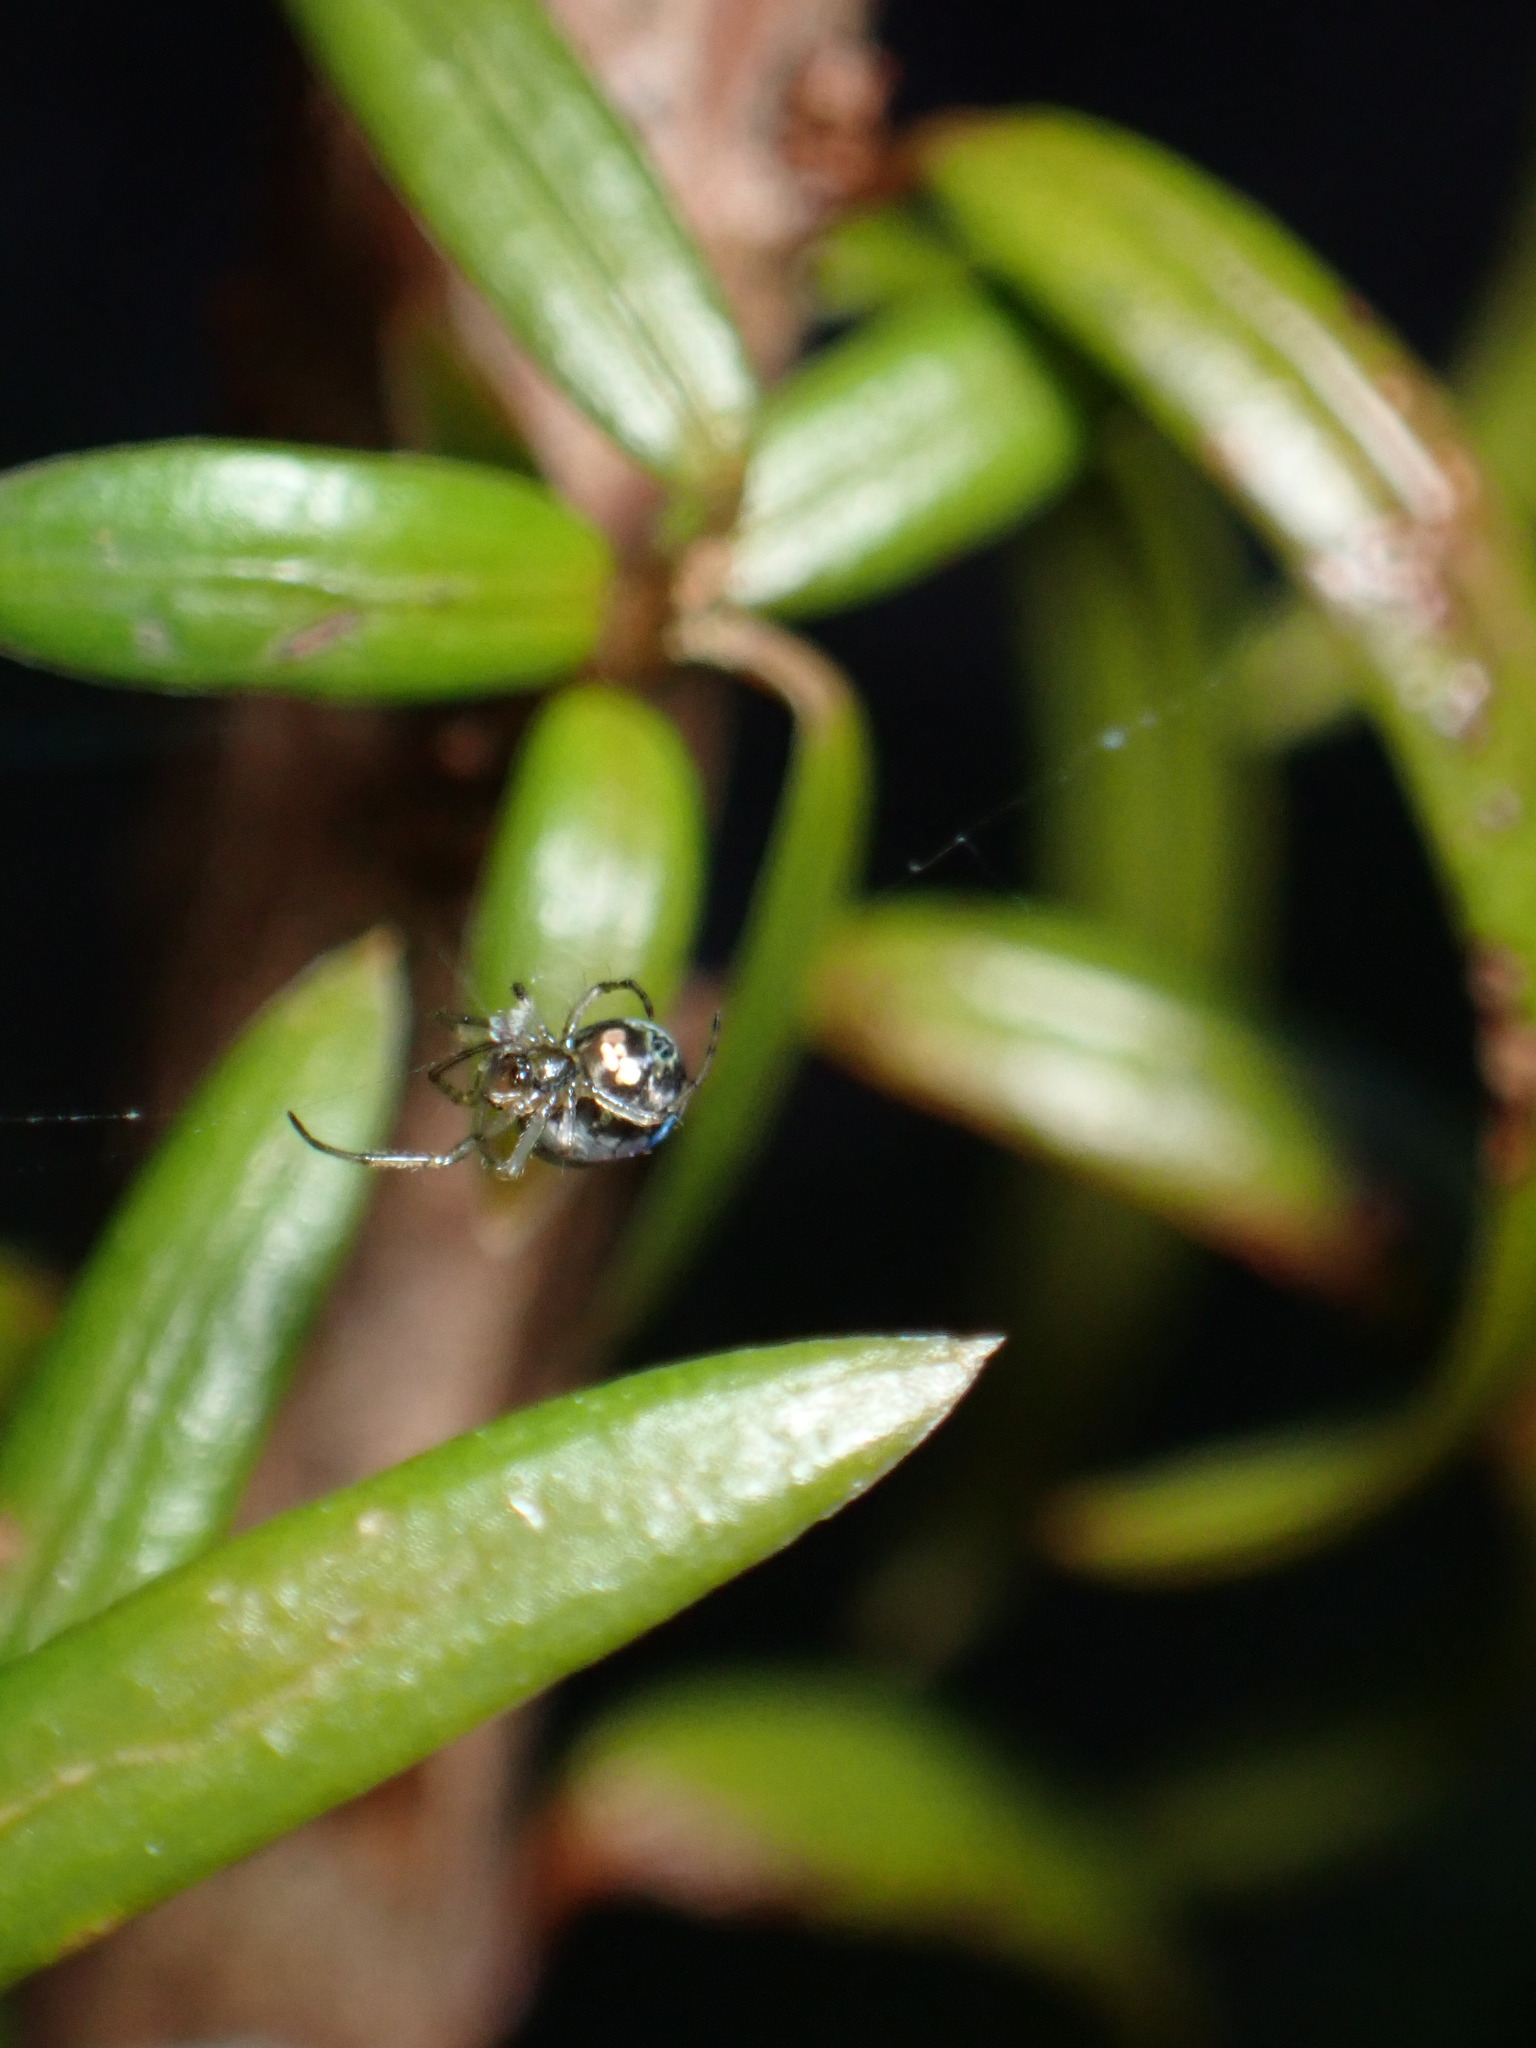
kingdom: Animalia
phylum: Arthropoda
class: Arachnida
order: Araneae
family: Tetragnathidae
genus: Leucauge
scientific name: Leucauge venusta
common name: Longjawed orb weavers
